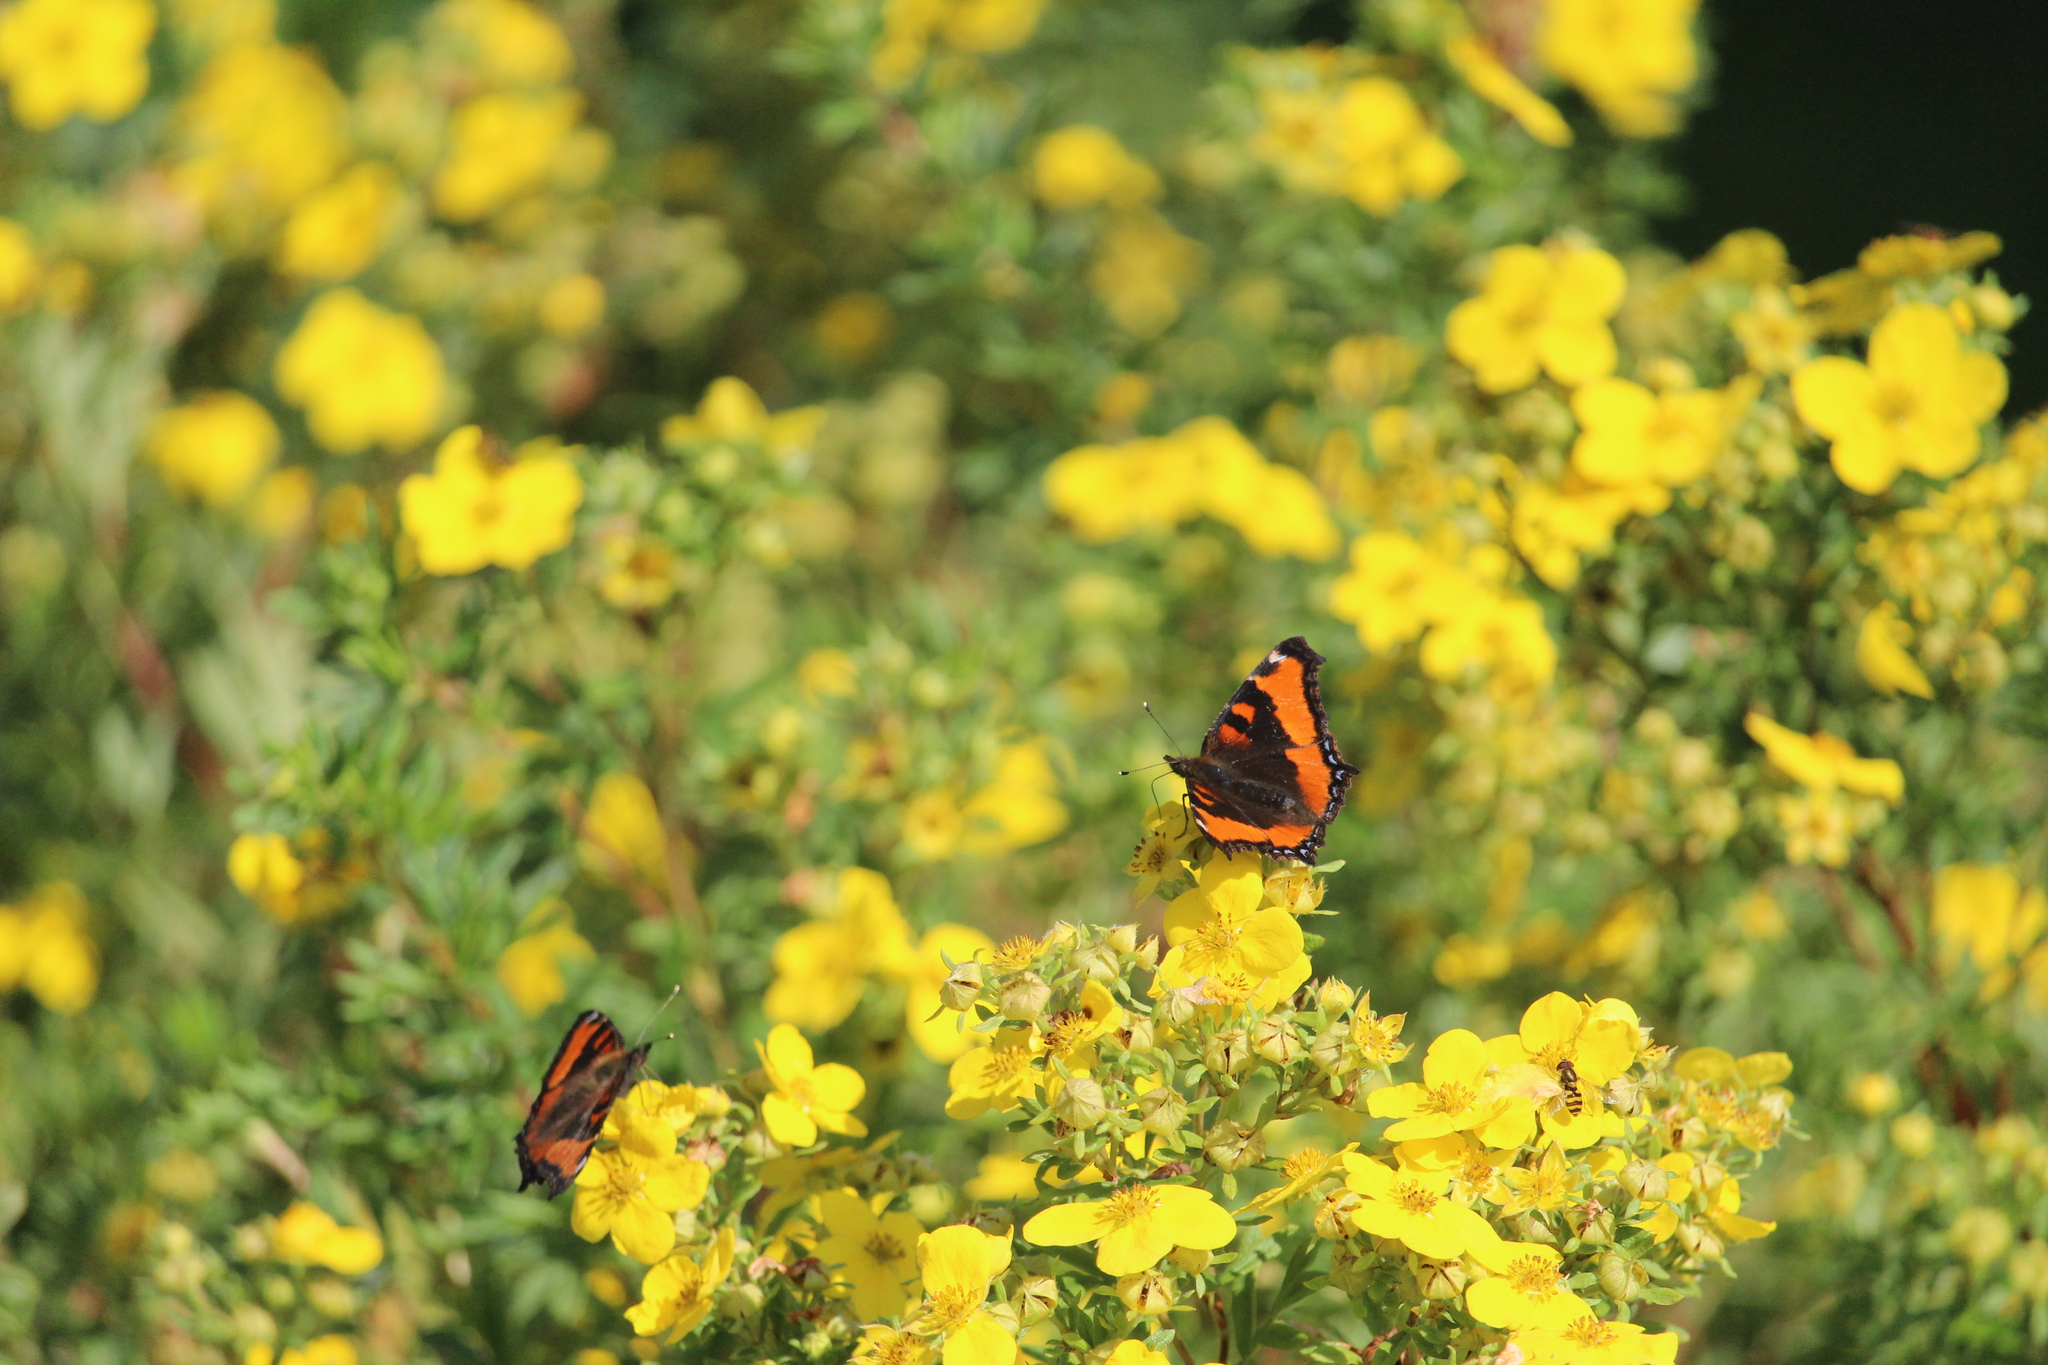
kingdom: Animalia
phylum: Arthropoda
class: Insecta
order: Lepidoptera
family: Nymphalidae
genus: Aglais
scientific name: Aglais milberti
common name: Milbert's tortoiseshell
